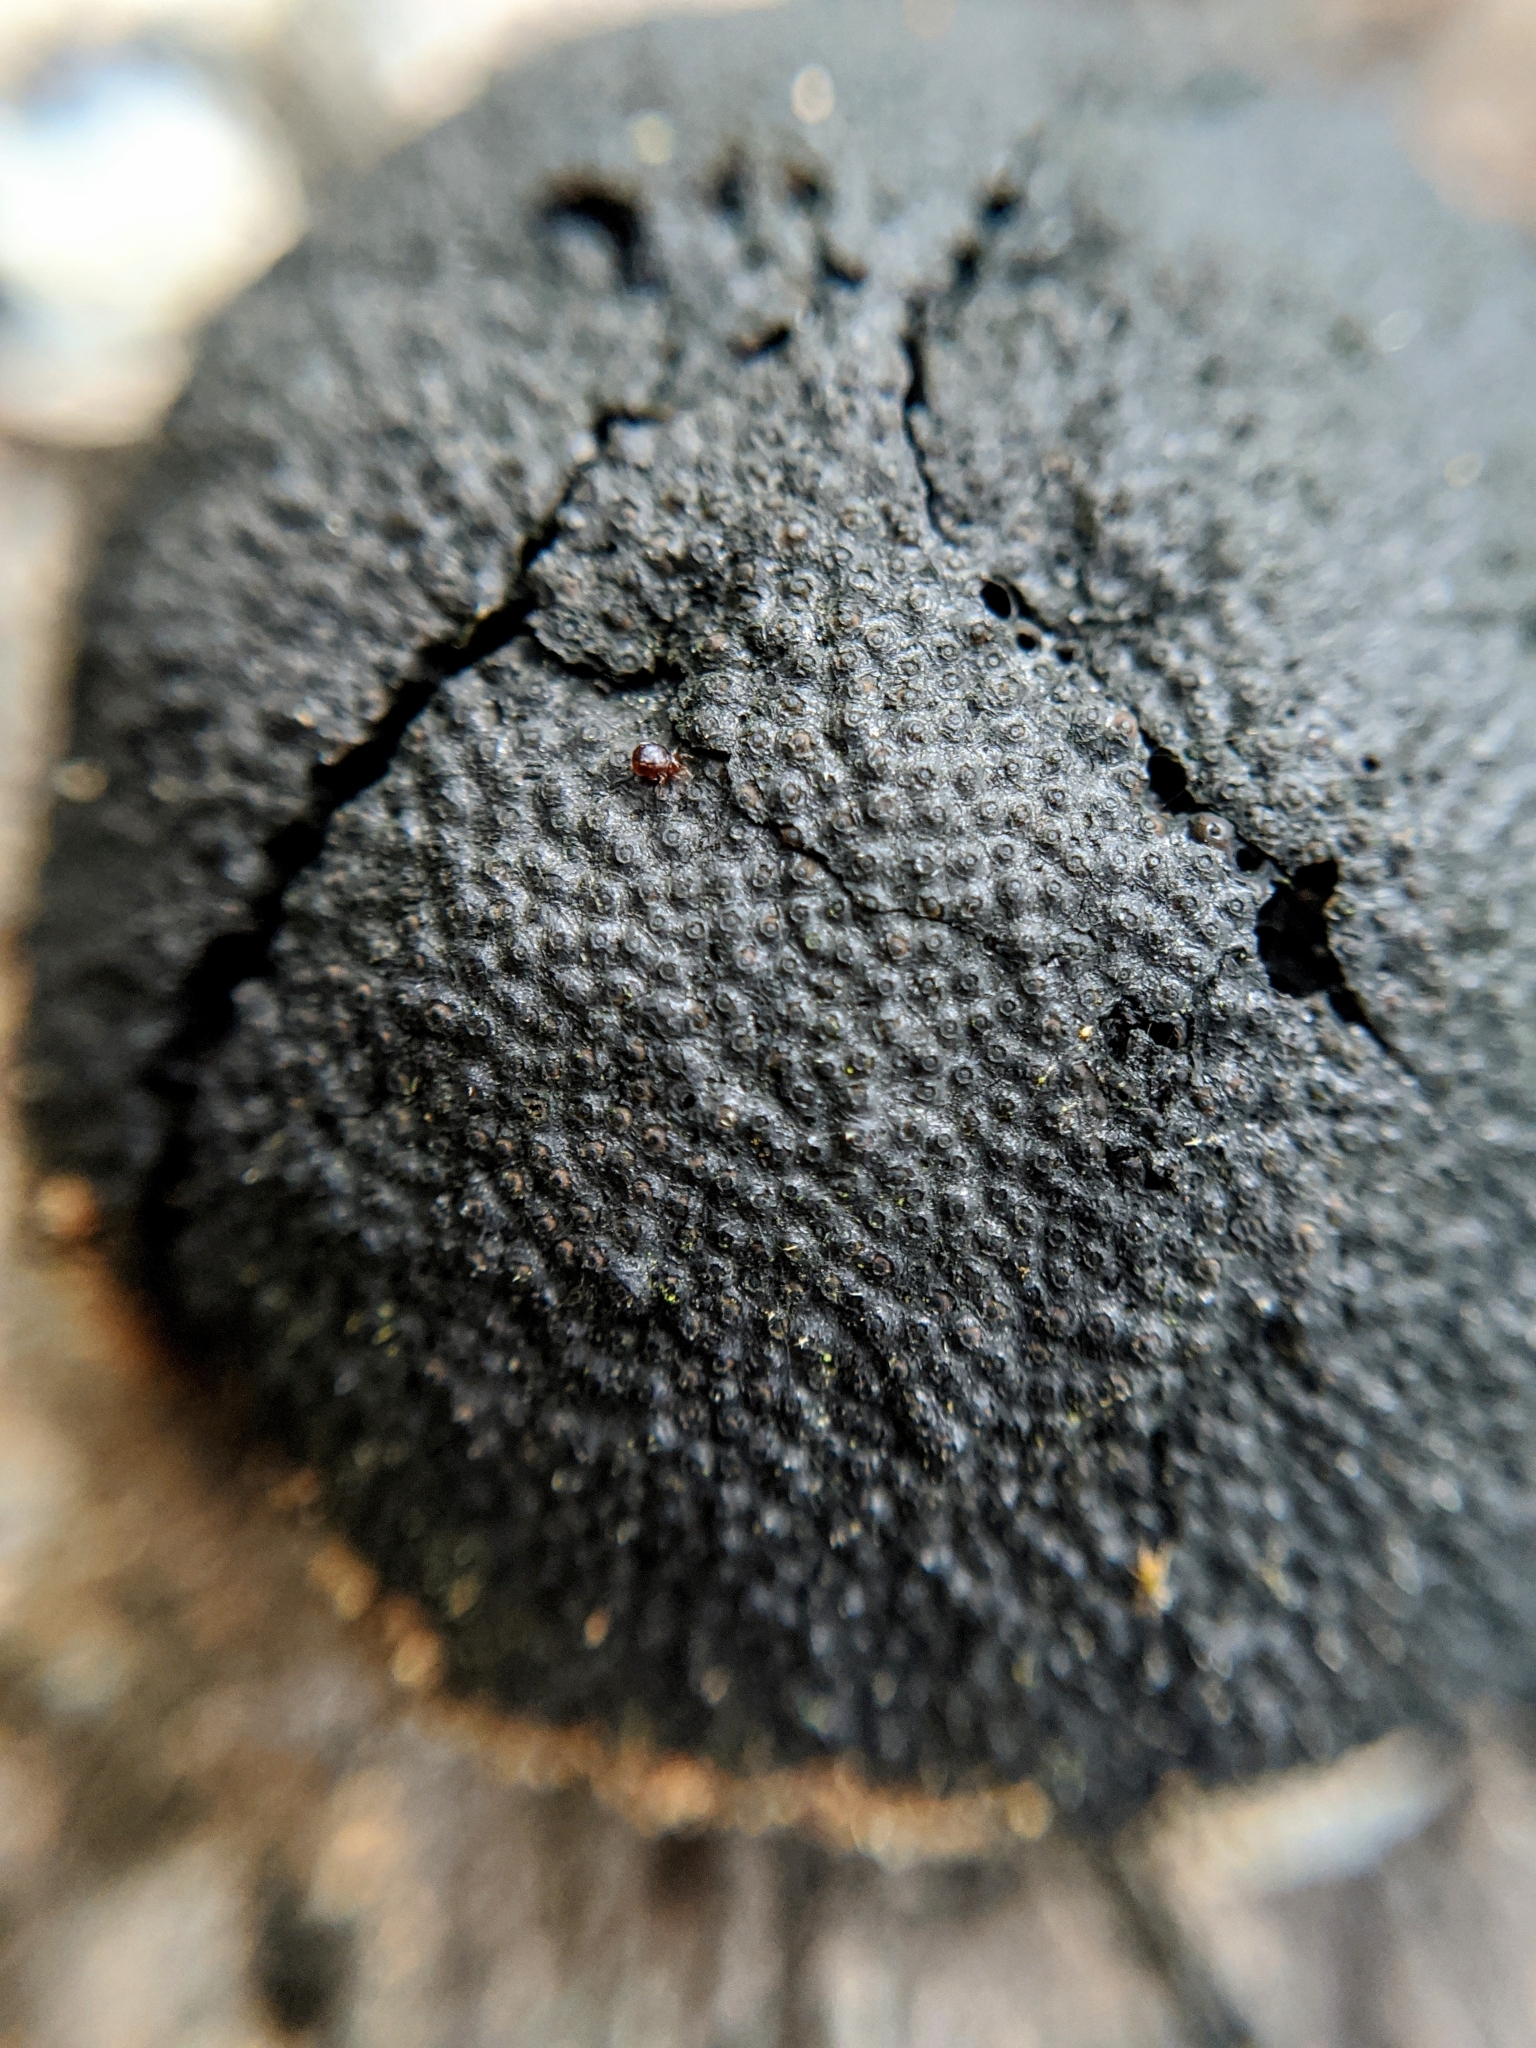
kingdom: Fungi
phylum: Ascomycota
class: Sordariomycetes
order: Xylariales
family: Hypoxylaceae
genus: Annulohypoxylon
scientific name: Annulohypoxylon thouarsianum
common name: Cramp balls
